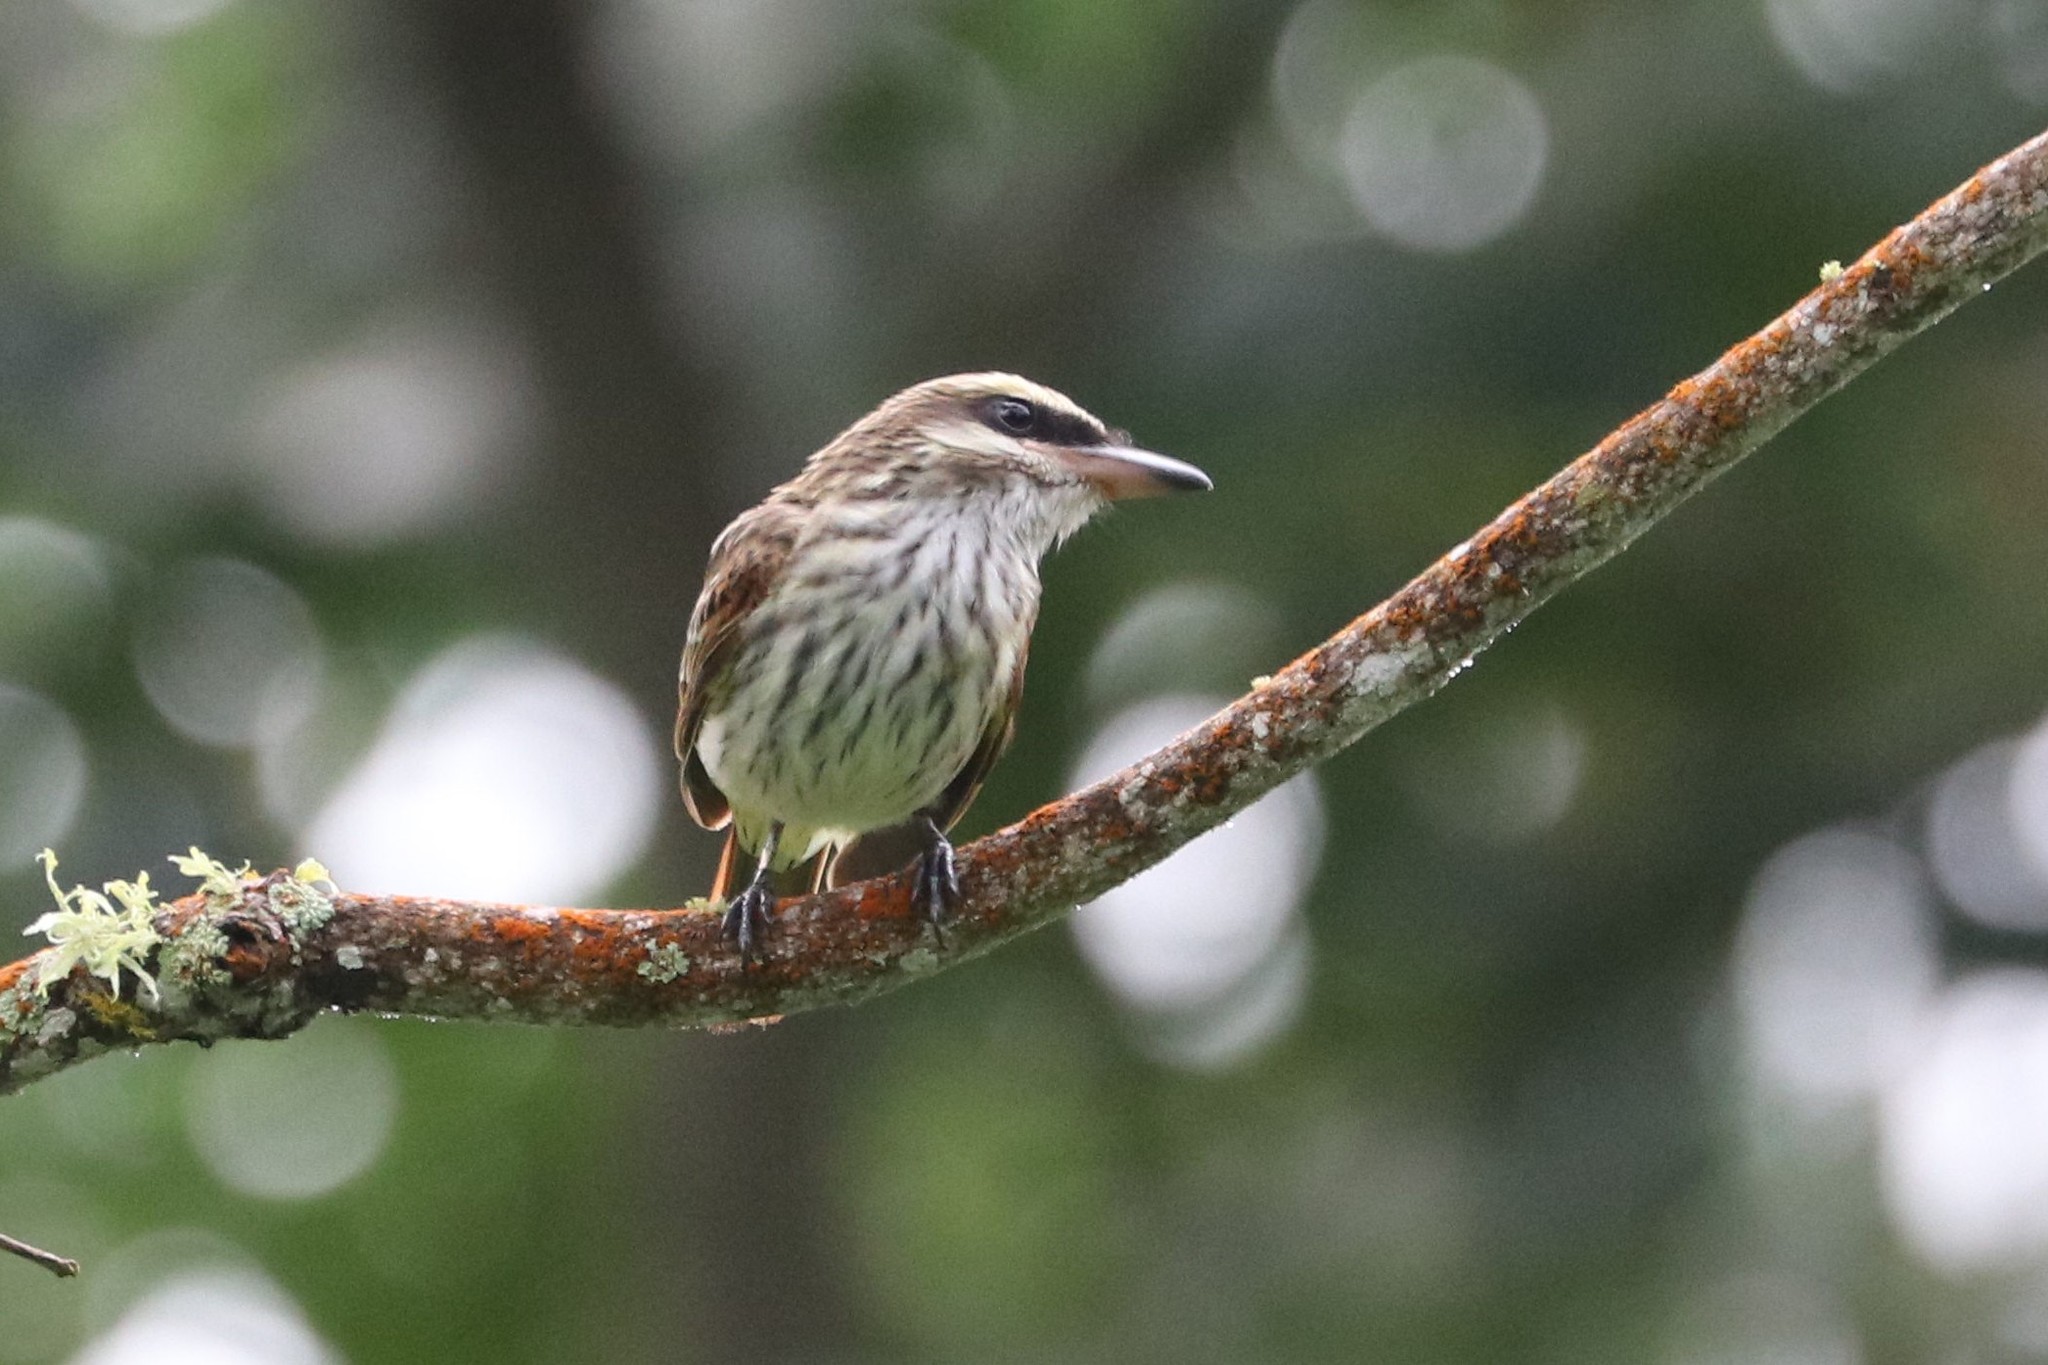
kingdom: Animalia
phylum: Chordata
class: Aves
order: Passeriformes
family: Tyrannidae
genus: Myiodynastes
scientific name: Myiodynastes maculatus
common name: Streaked flycatcher
